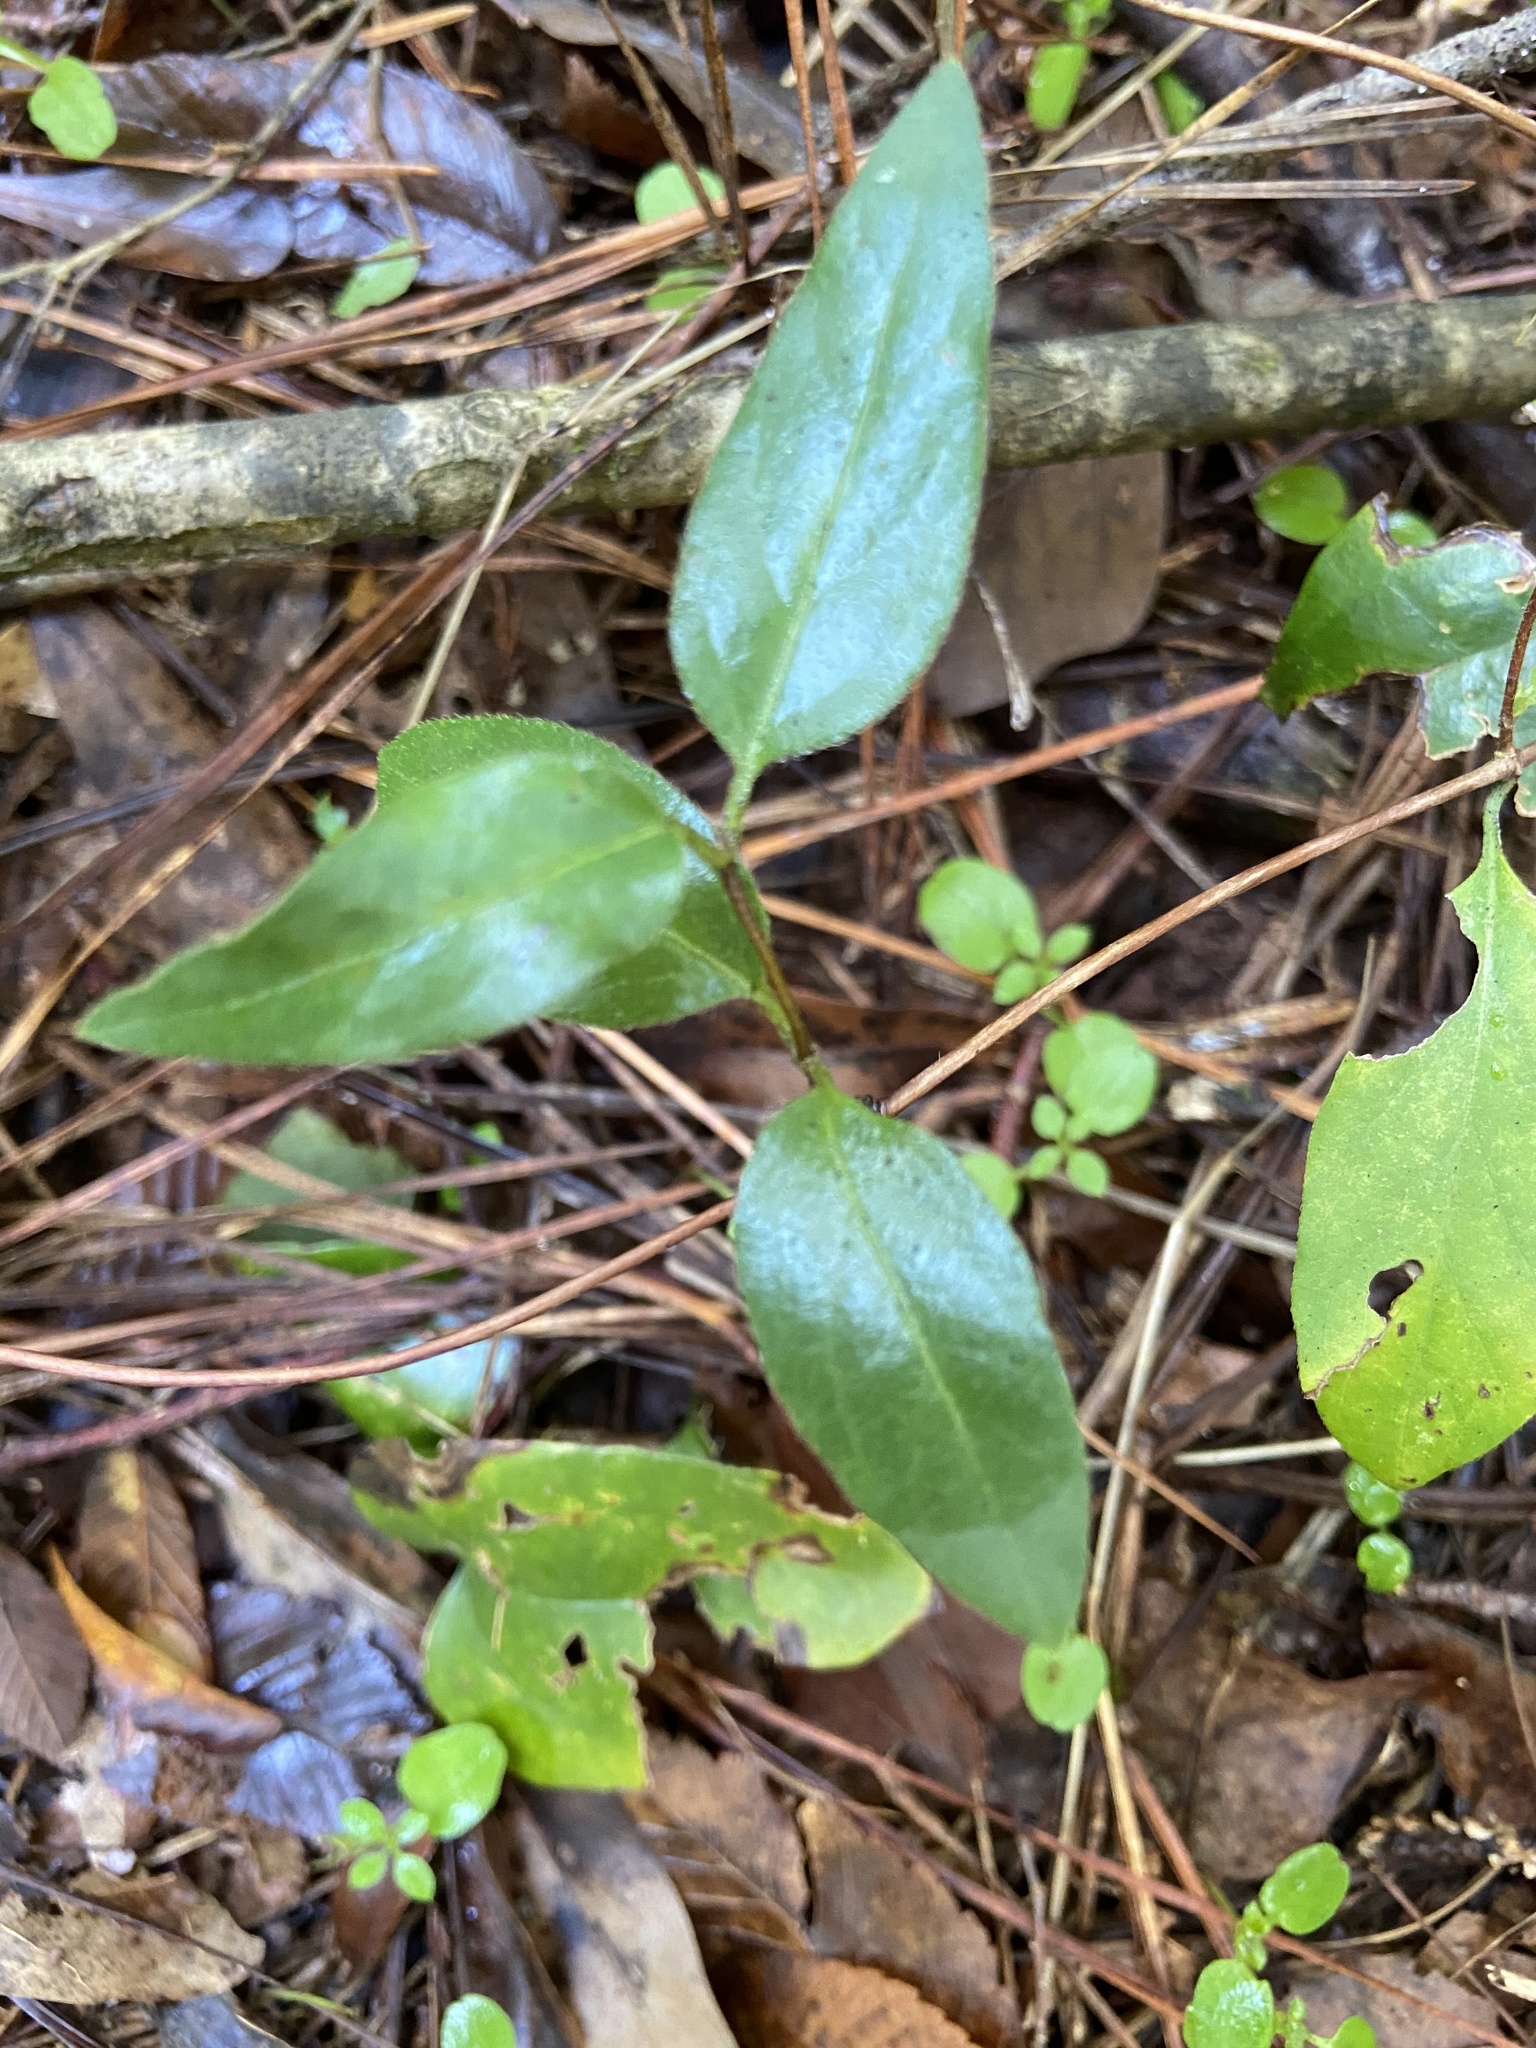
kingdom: Plantae
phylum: Tracheophyta
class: Magnoliopsida
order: Ranunculales
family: Berberidaceae
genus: Nandina
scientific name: Nandina domestica
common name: Sacred bamboo
